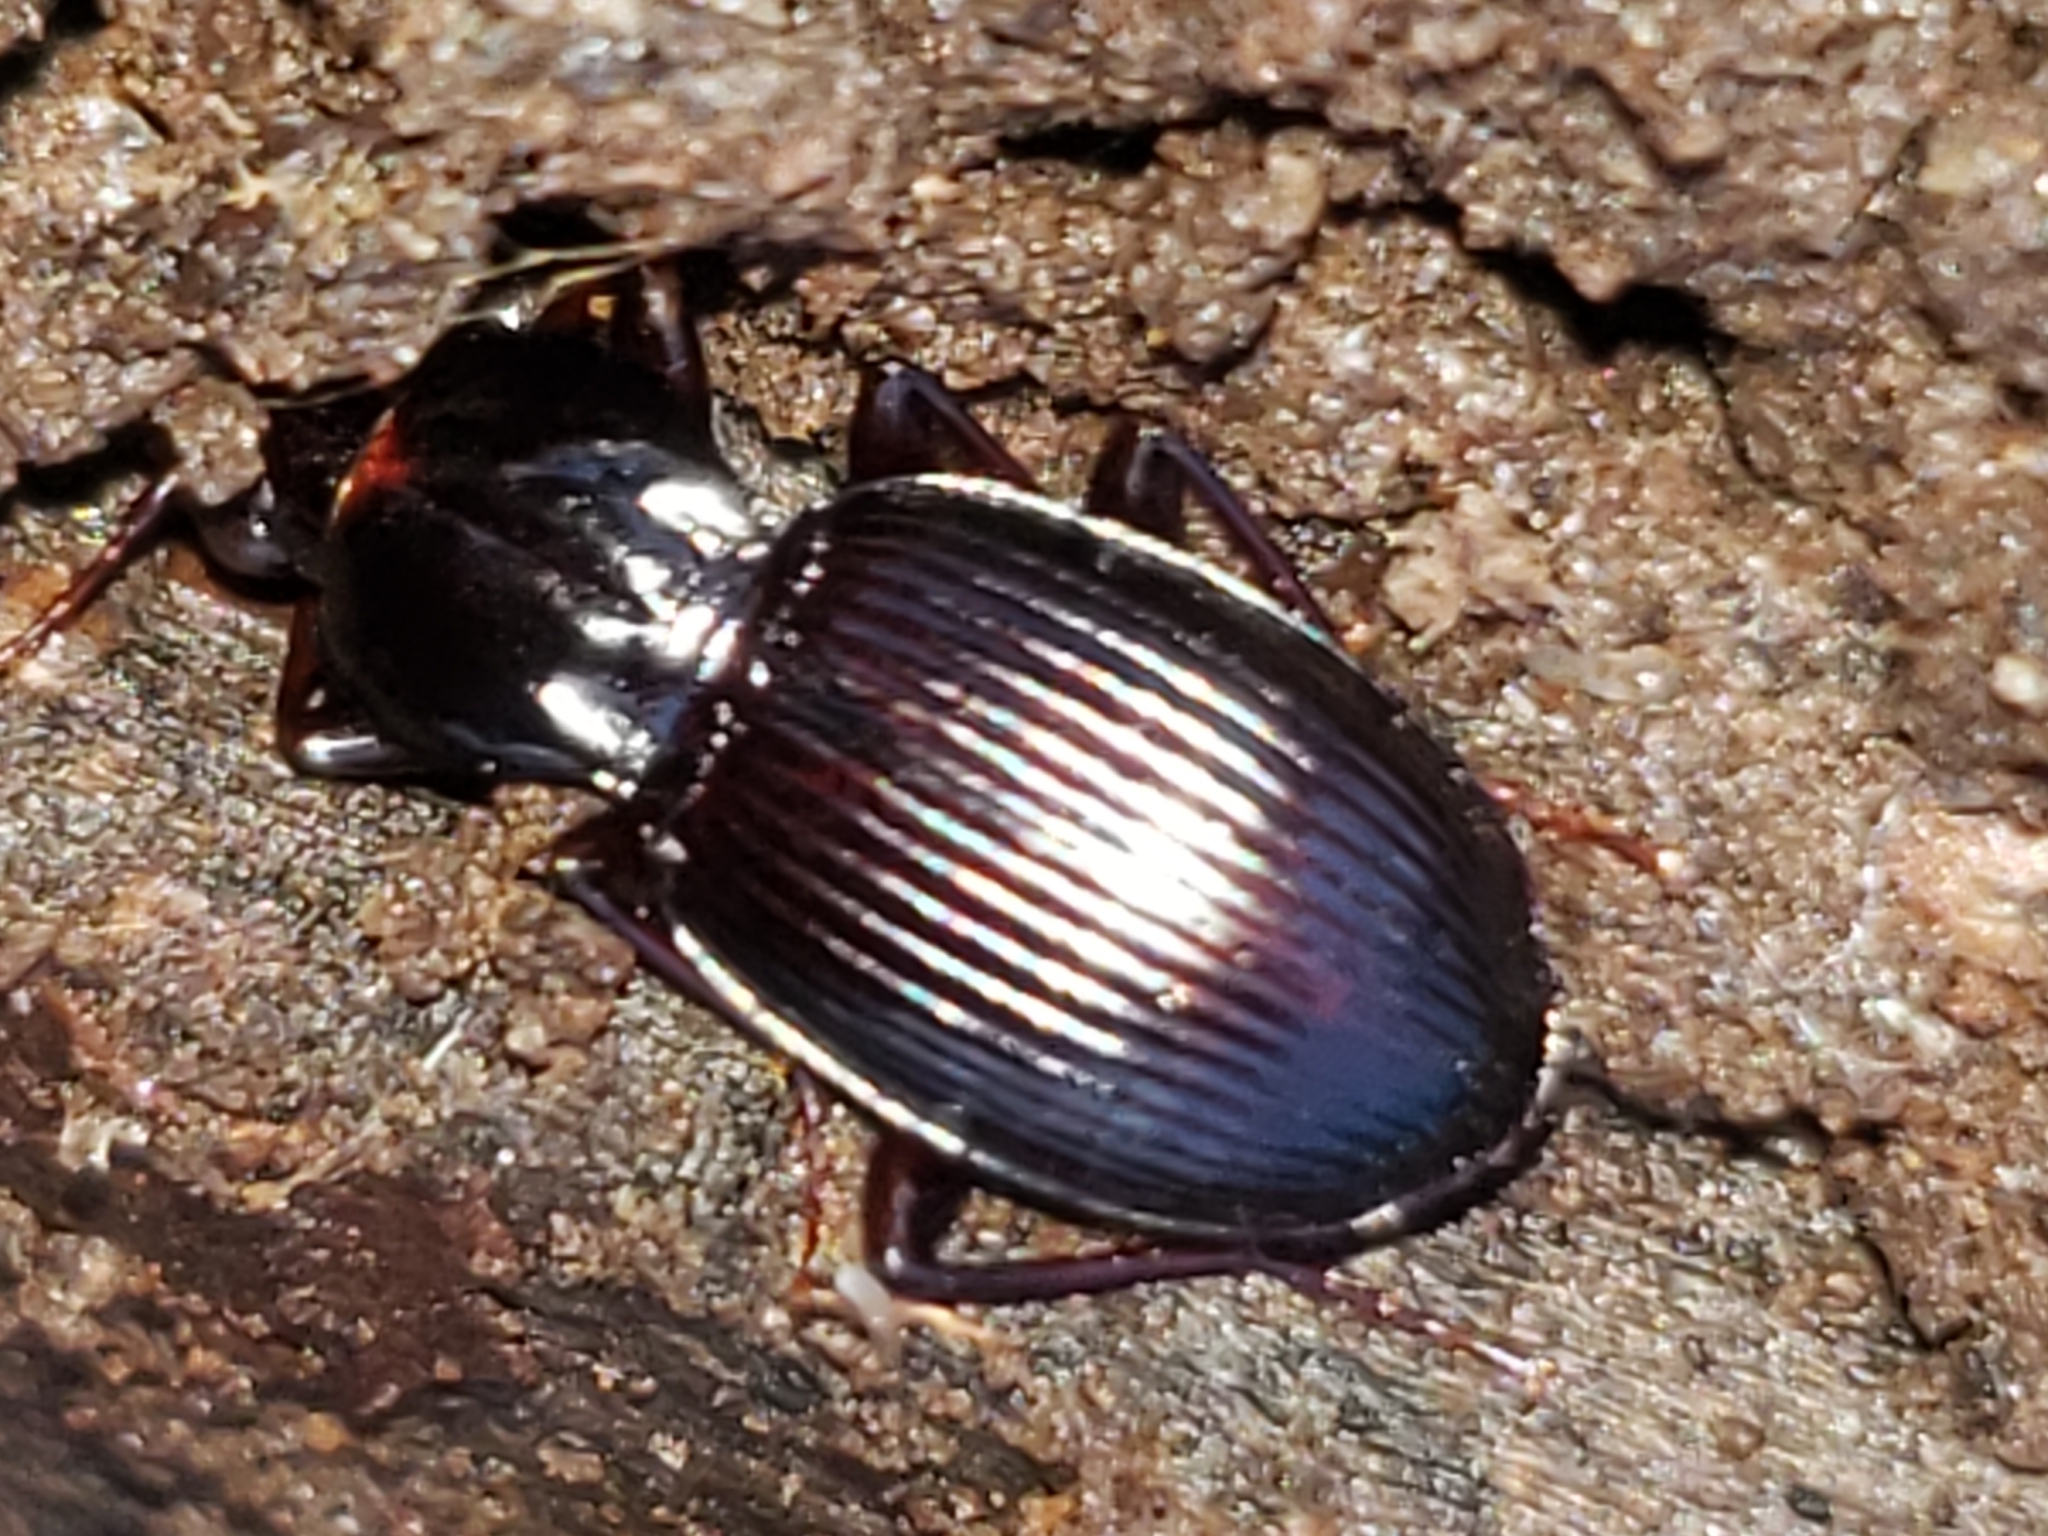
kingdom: Animalia
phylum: Arthropoda
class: Insecta
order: Coleoptera
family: Carabidae
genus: Gastrellarius
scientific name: Gastrellarius honestus
